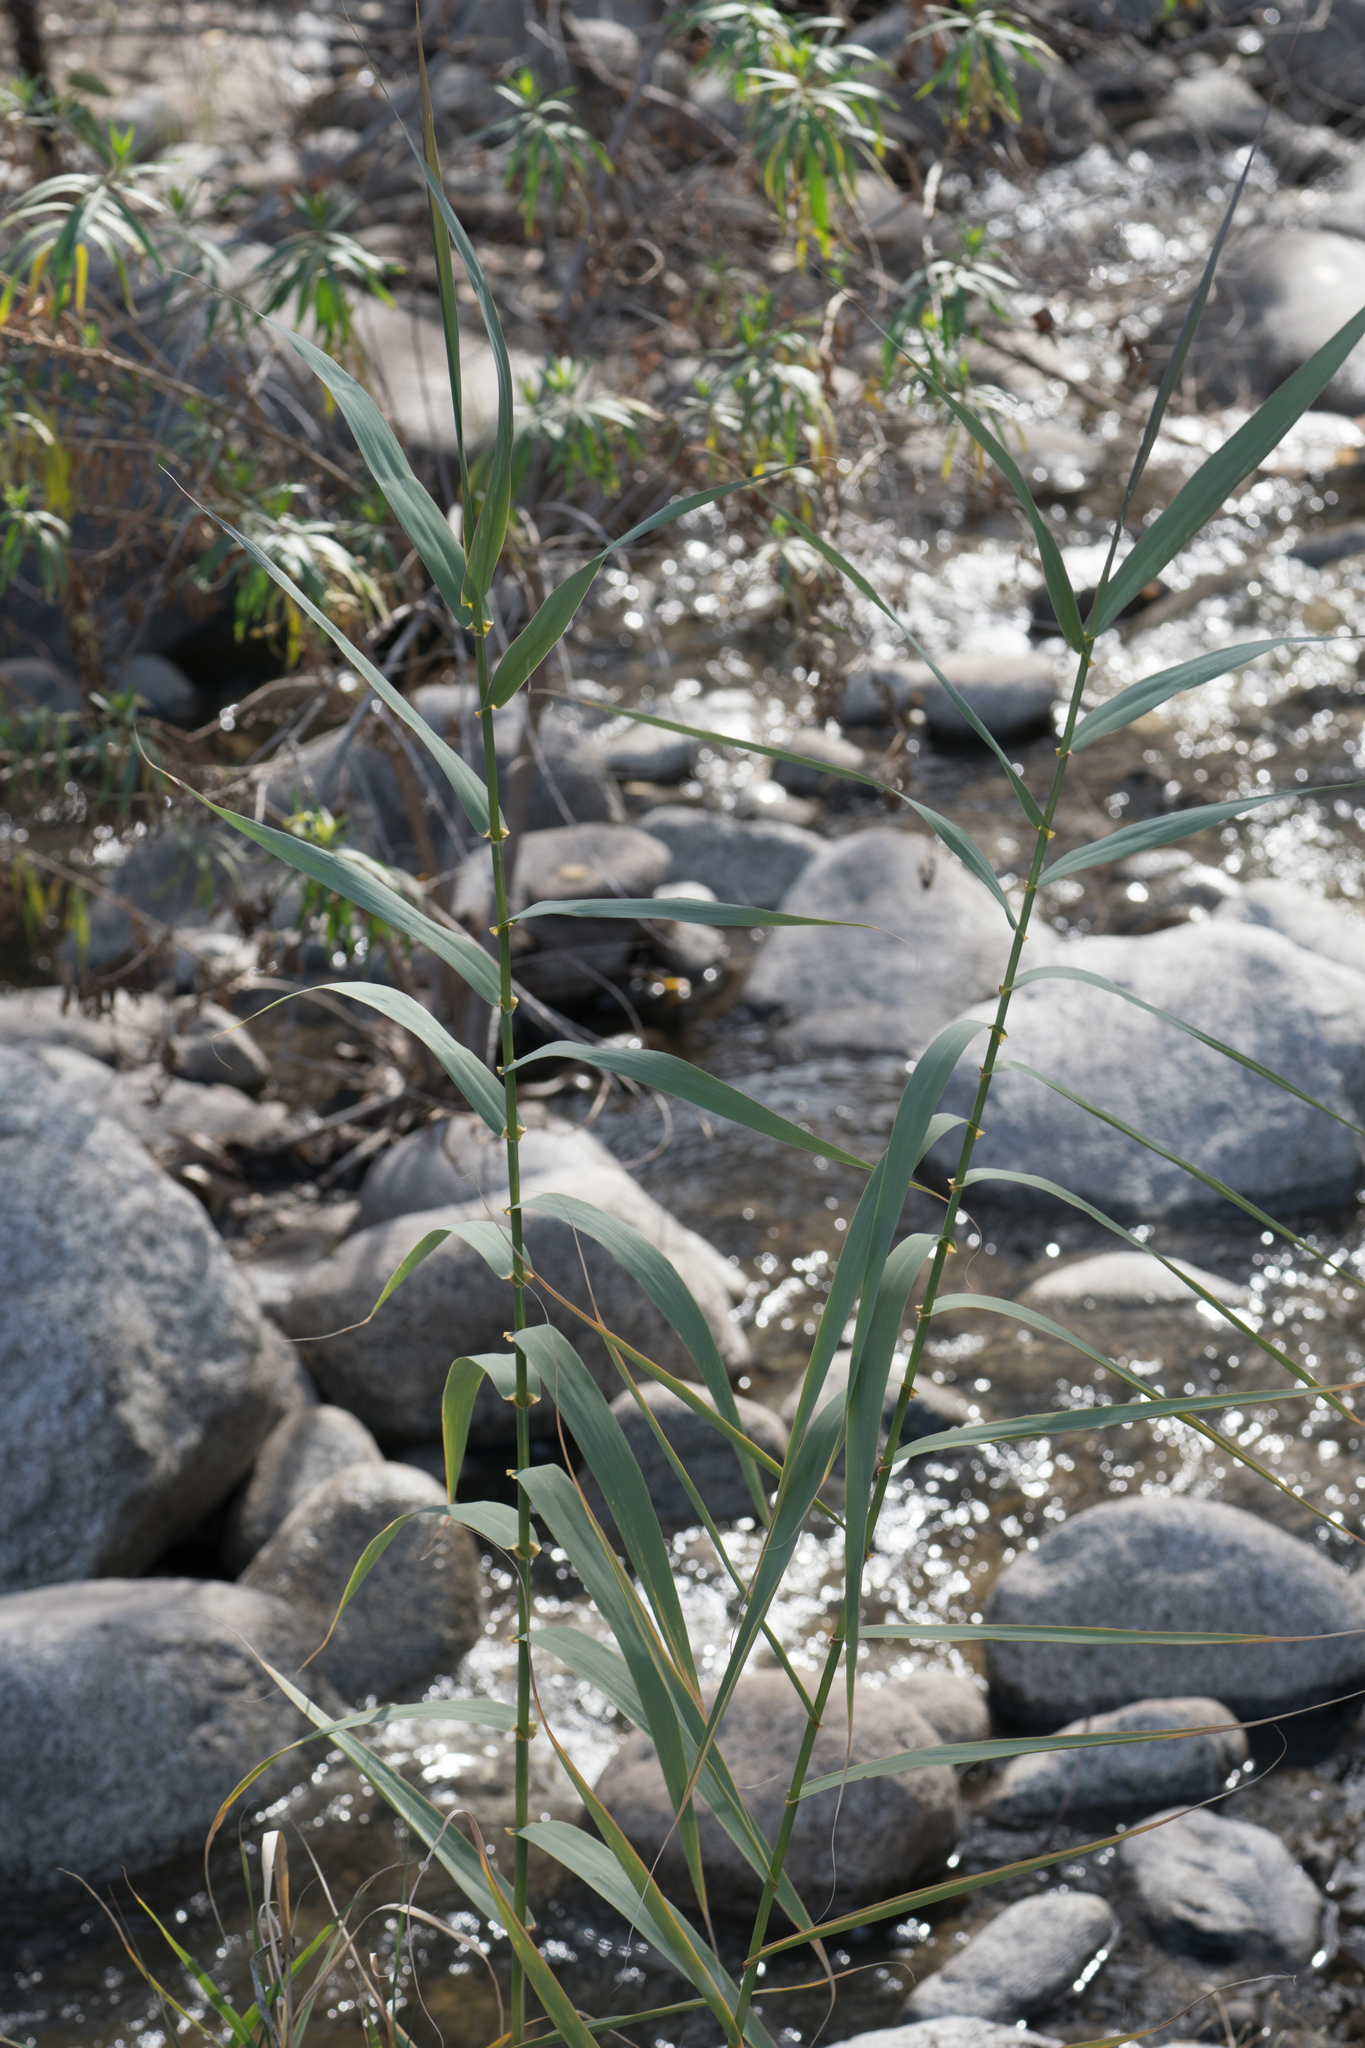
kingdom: Plantae
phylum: Tracheophyta
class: Liliopsida
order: Poales
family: Poaceae
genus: Arundo
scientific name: Arundo donax
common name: Giant reed
